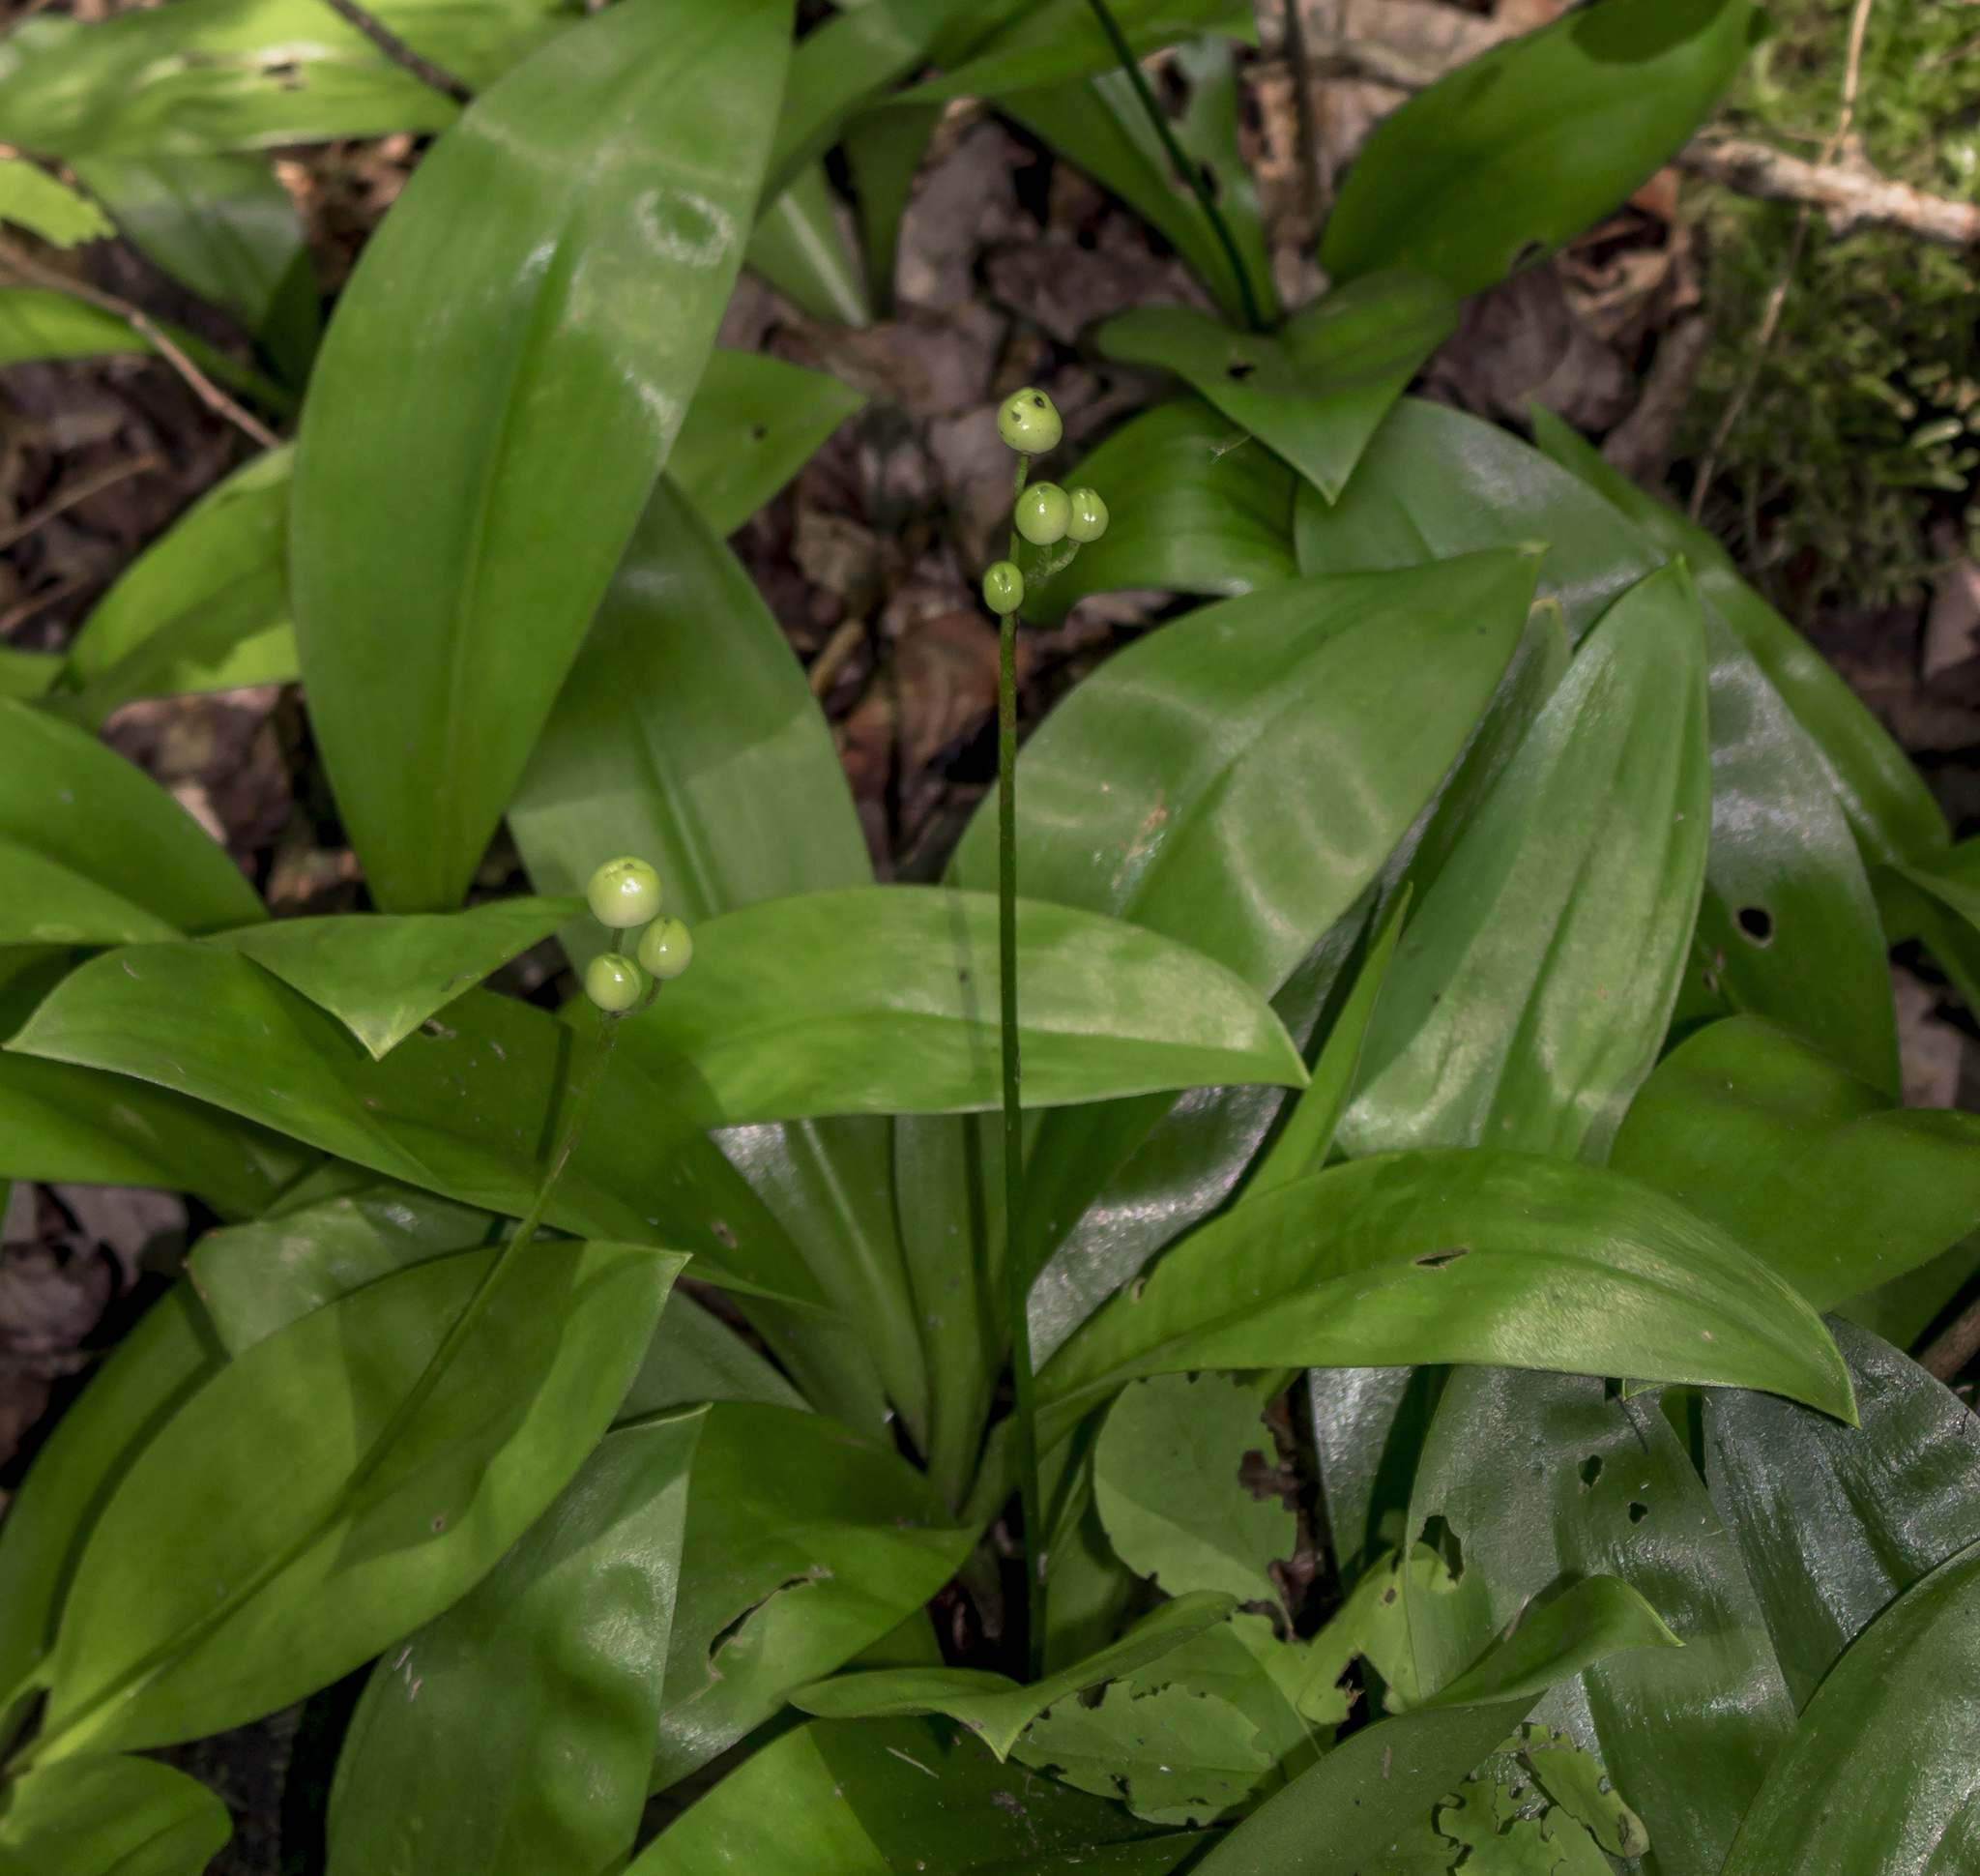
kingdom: Plantae
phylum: Tracheophyta
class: Liliopsida
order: Liliales
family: Liliaceae
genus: Clintonia
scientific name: Clintonia borealis
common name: Yellow clintonia
